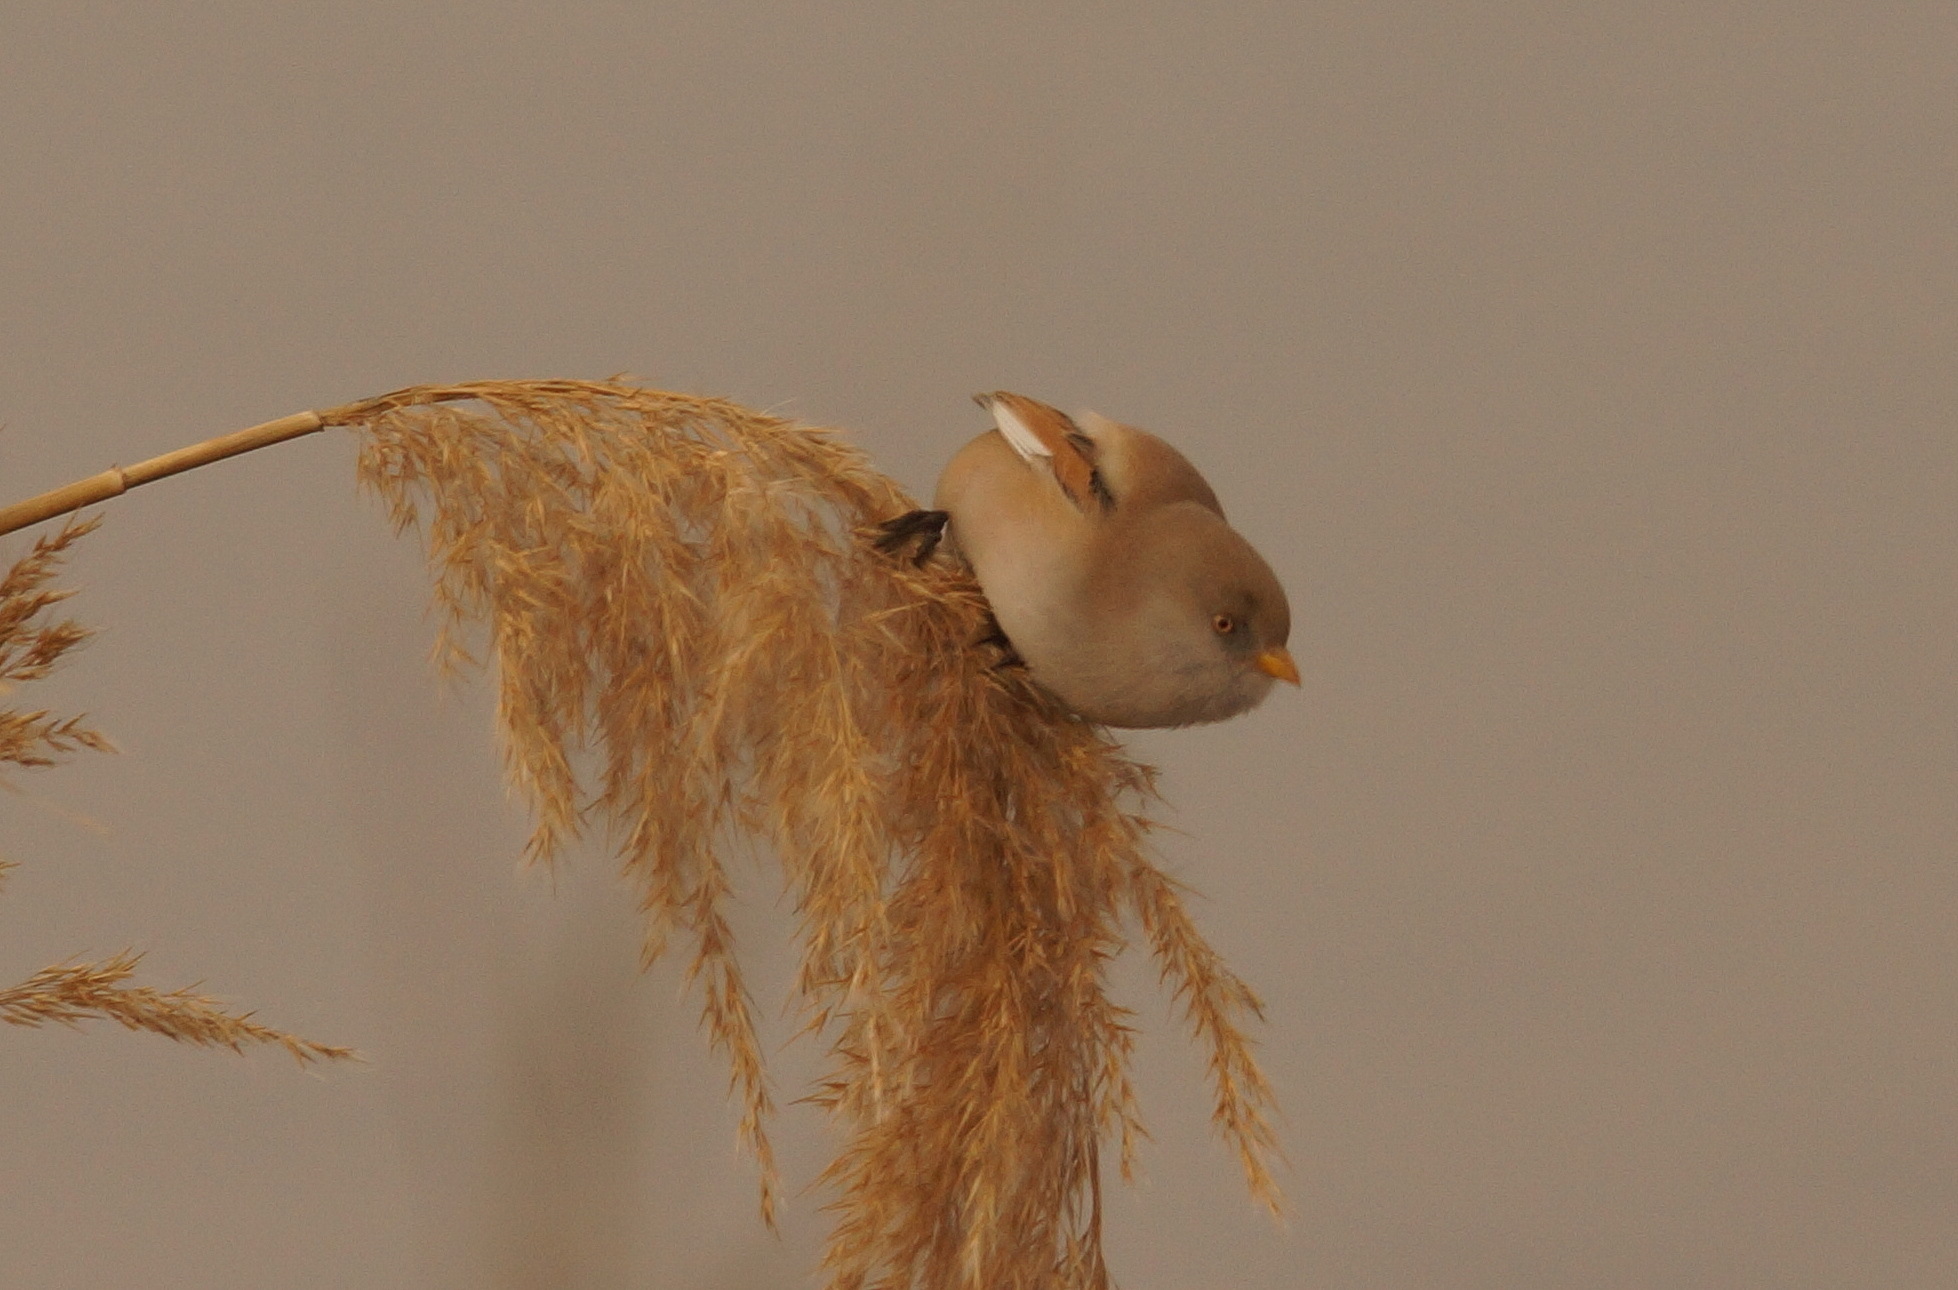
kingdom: Animalia
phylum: Chordata
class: Aves
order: Passeriformes
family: Panuridae
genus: Panurus
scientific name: Panurus biarmicus
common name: Bearded reedling
